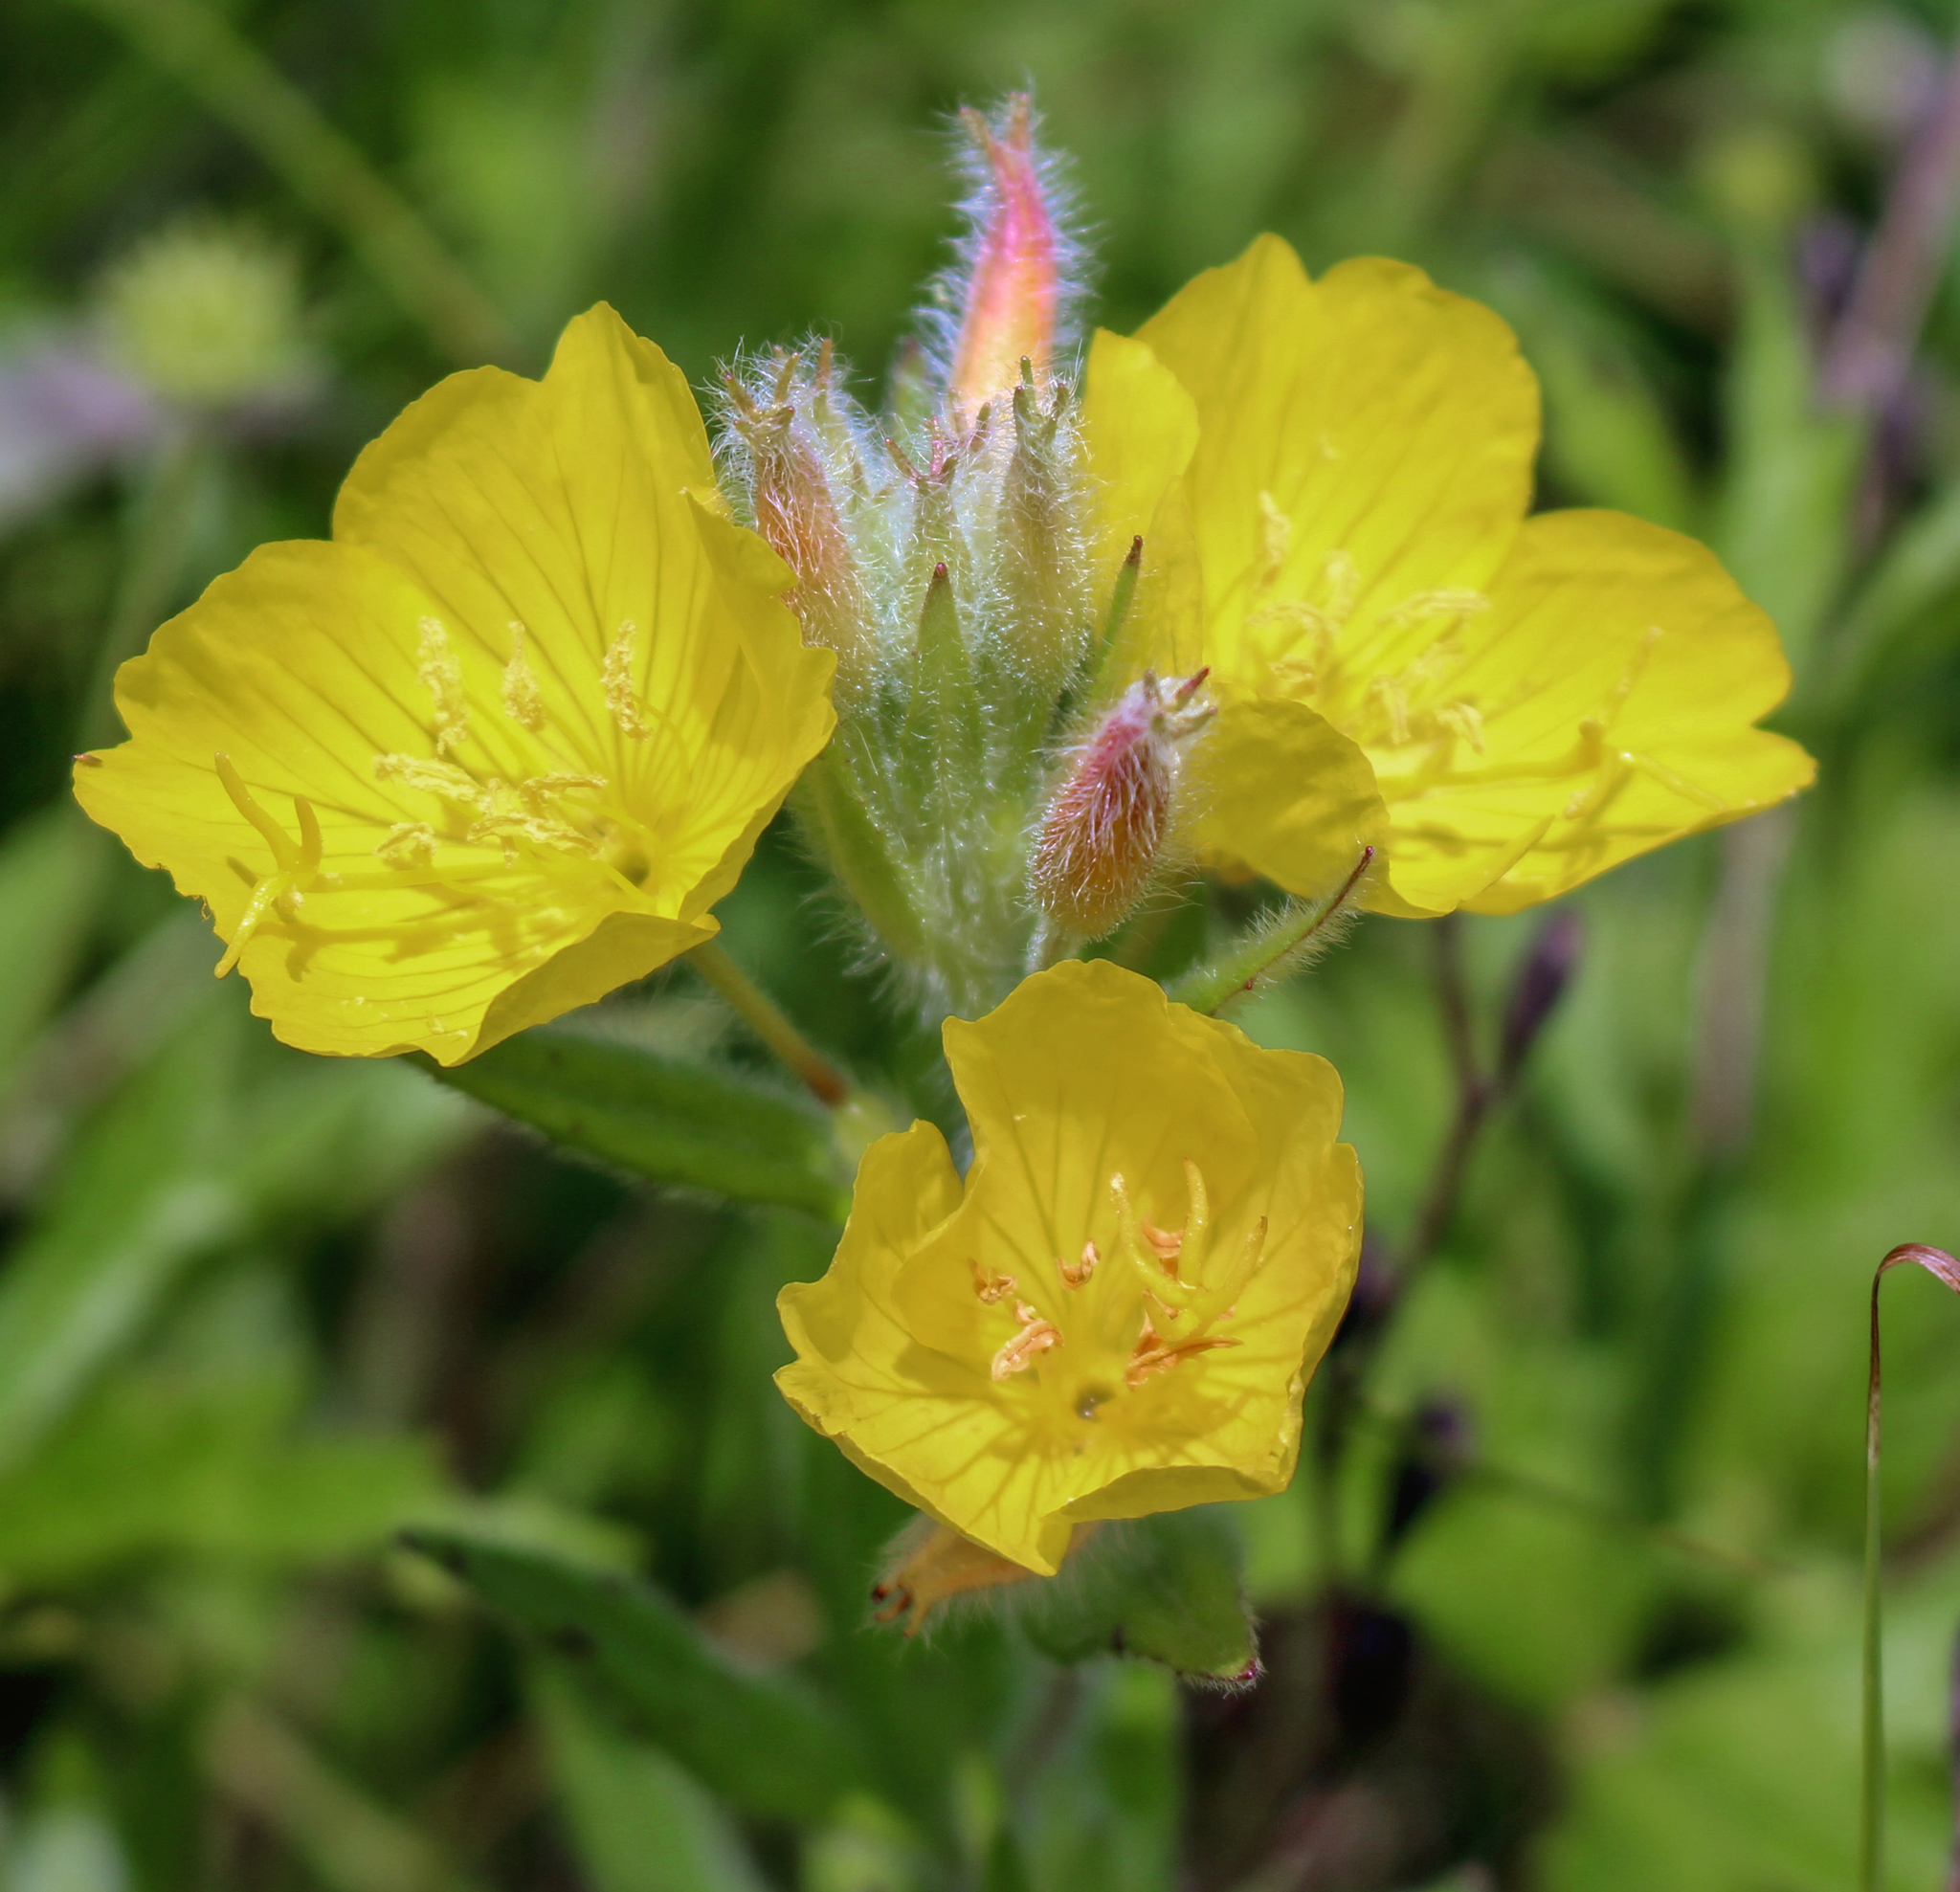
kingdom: Plantae
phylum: Tracheophyta
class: Magnoliopsida
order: Myrtales
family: Onagraceae
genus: Oenothera
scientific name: Oenothera pilosella
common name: Finely-pilose evening-primrose
